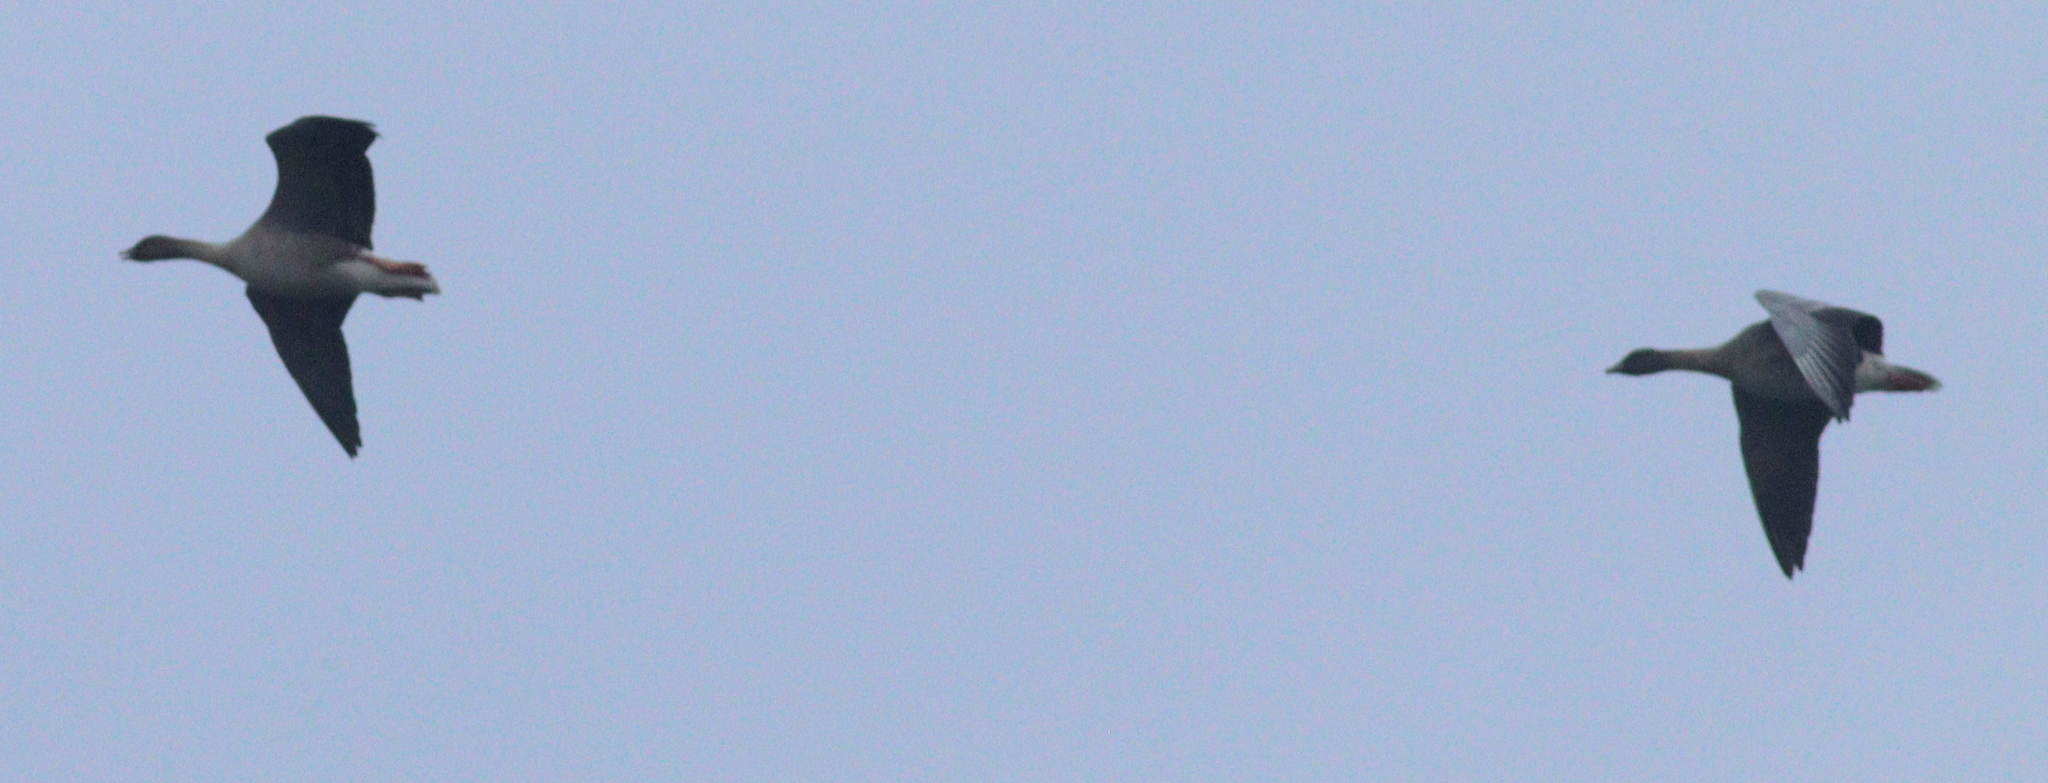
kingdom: Animalia
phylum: Chordata
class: Aves
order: Anseriformes
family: Anatidae
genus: Anser
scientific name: Anser serrirostris
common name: Tundra bean goose
